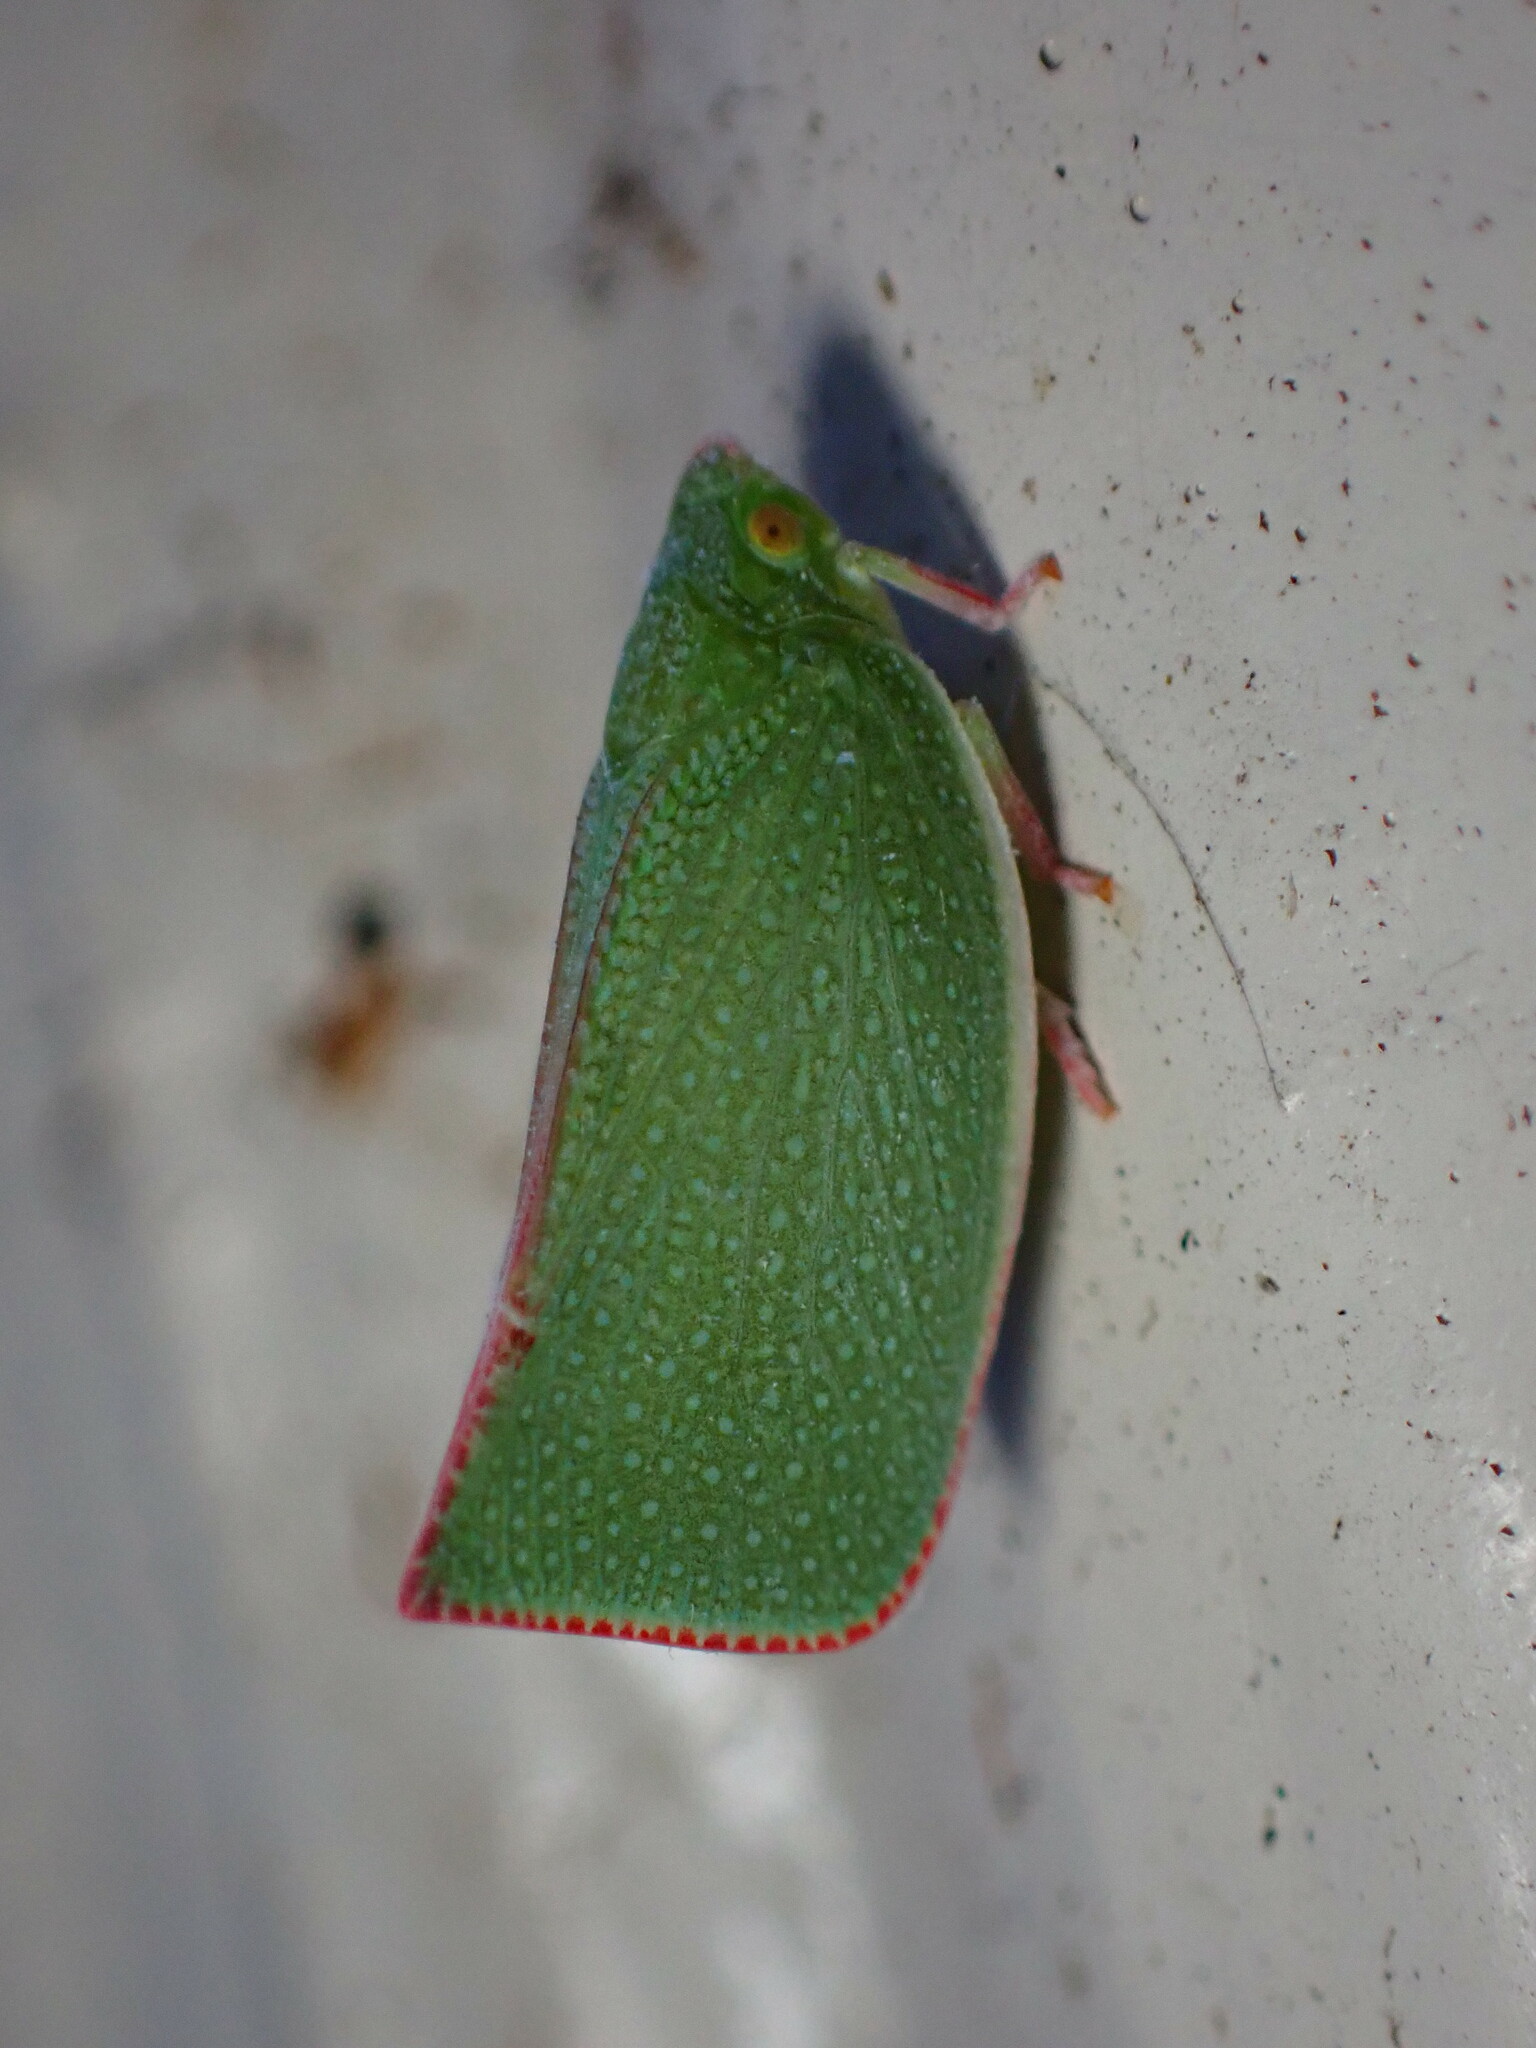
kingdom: Animalia
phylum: Arthropoda
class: Insecta
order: Hemiptera
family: Flatidae
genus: Siphanta
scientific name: Siphanta acuta
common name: Torpedo bug
